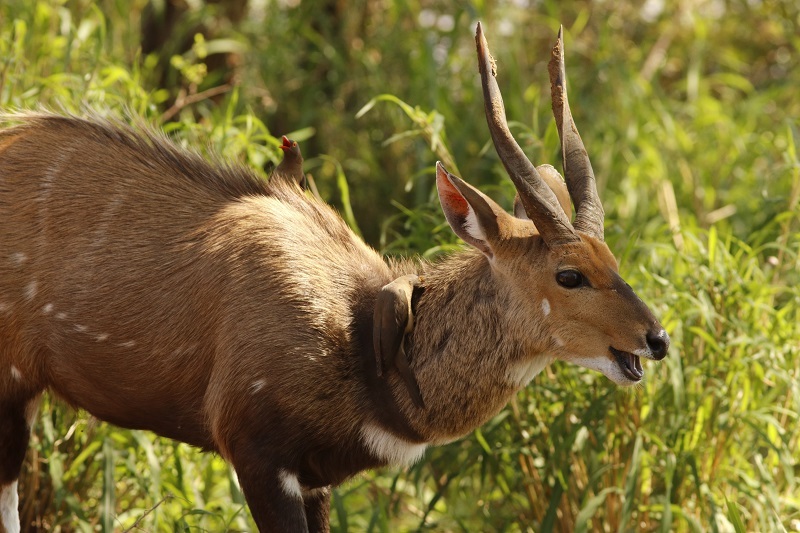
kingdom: Animalia
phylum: Chordata
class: Mammalia
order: Artiodactyla
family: Bovidae
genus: Tragelaphus
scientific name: Tragelaphus scriptus
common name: Bushbuck
